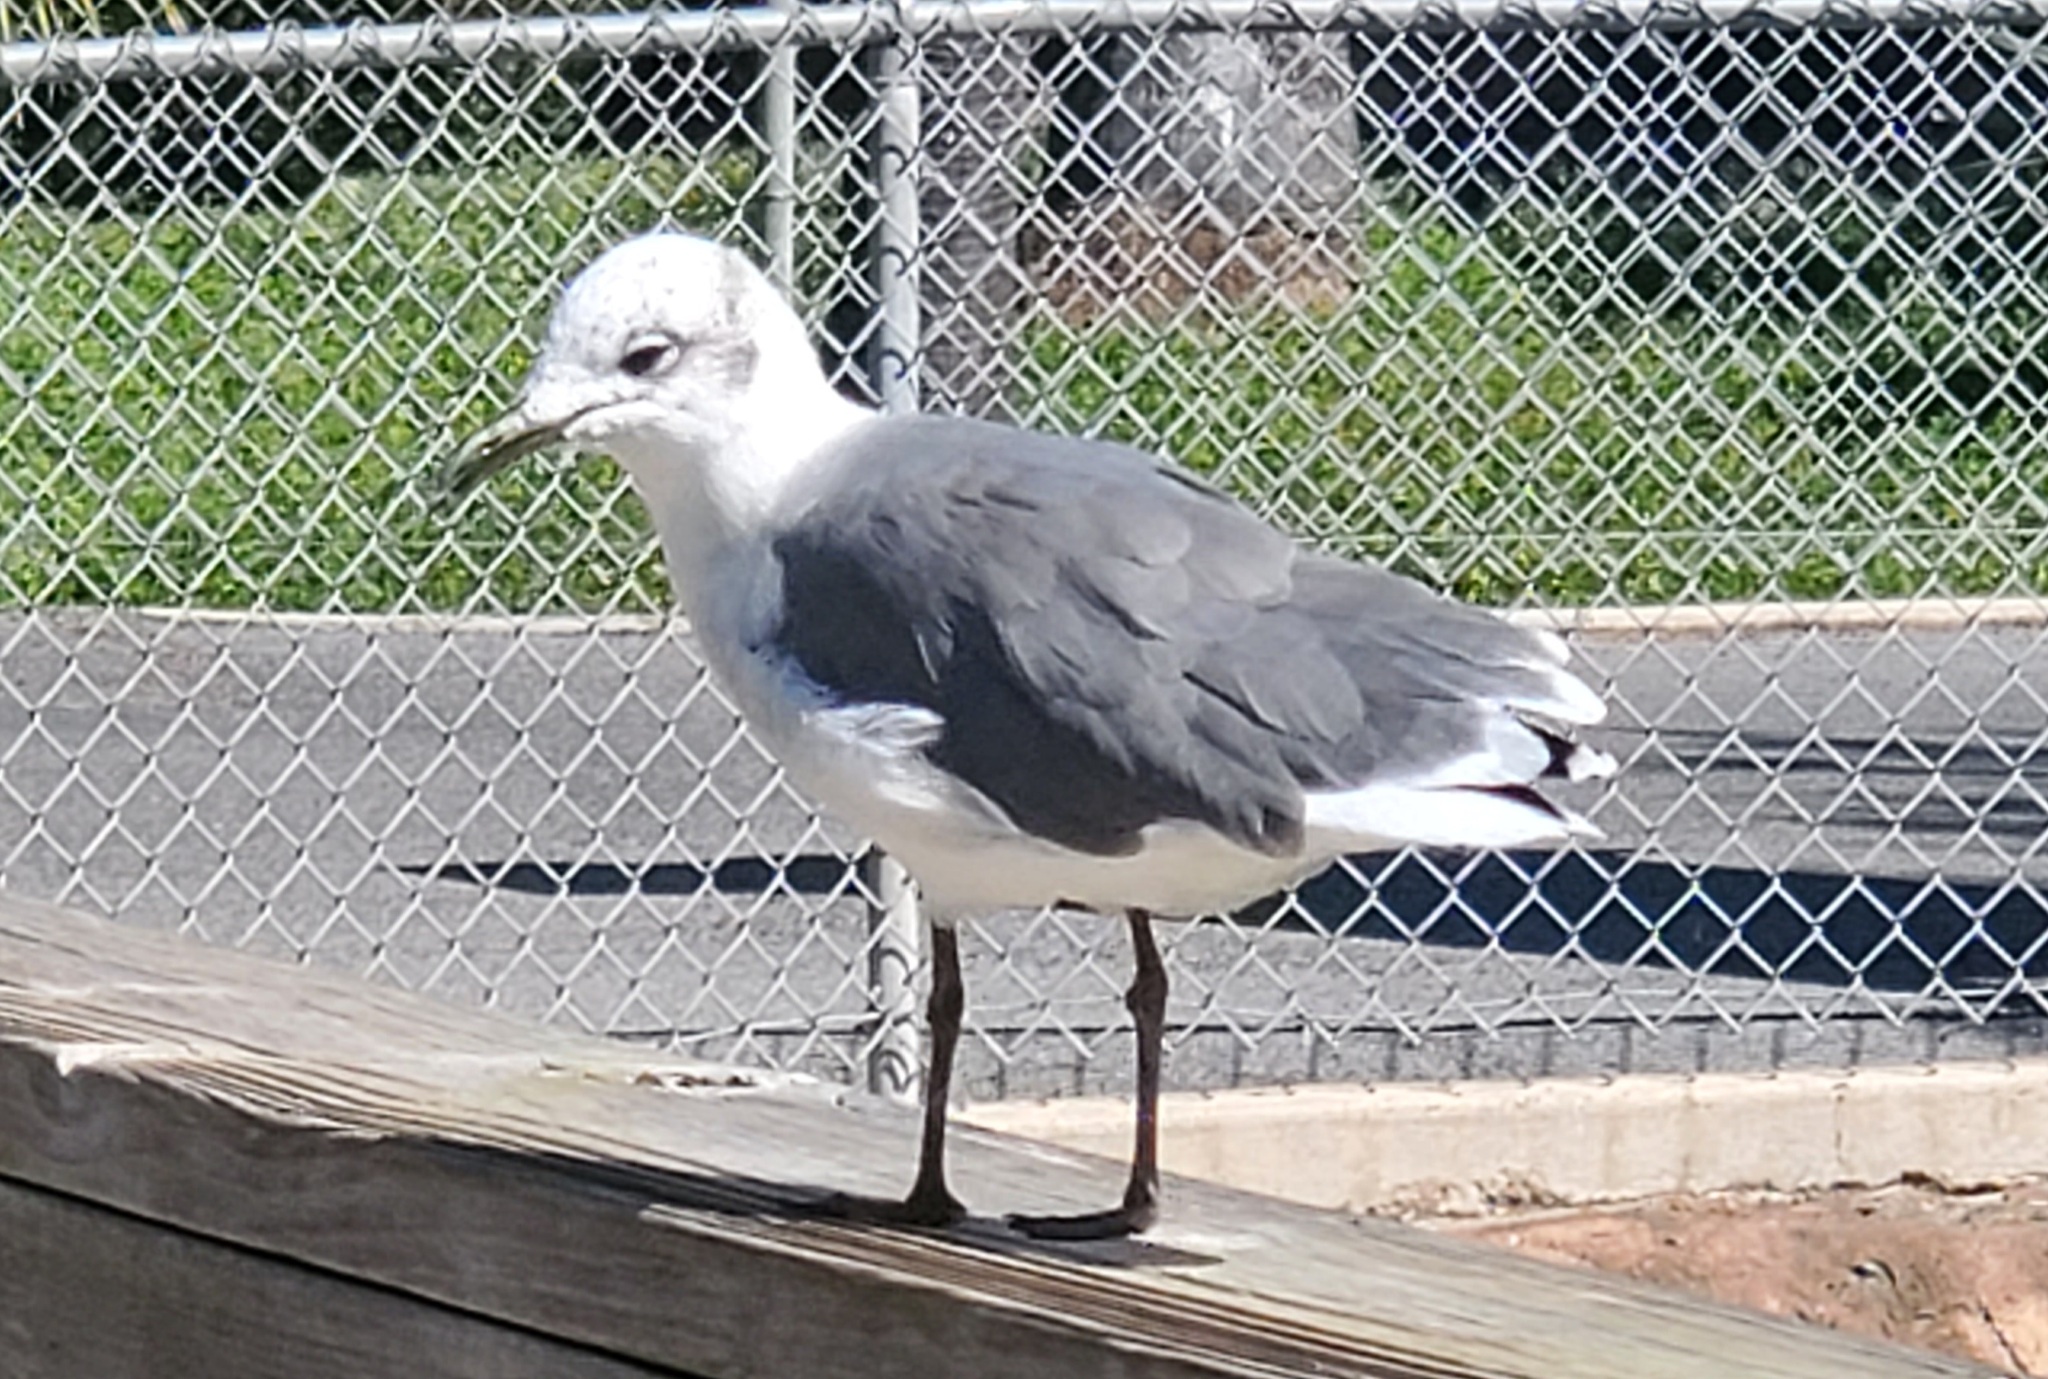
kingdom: Animalia
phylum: Chordata
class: Aves
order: Charadriiformes
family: Laridae
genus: Leucophaeus
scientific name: Leucophaeus atricilla
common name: Laughing gull
